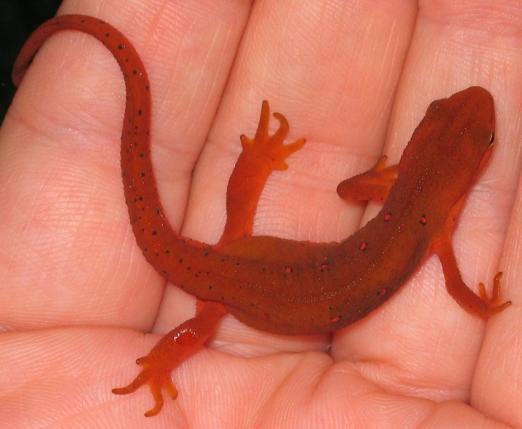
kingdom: Animalia
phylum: Chordata
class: Amphibia
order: Caudata
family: Salamandridae
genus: Notophthalmus
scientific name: Notophthalmus viridescens
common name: Eastern newt
